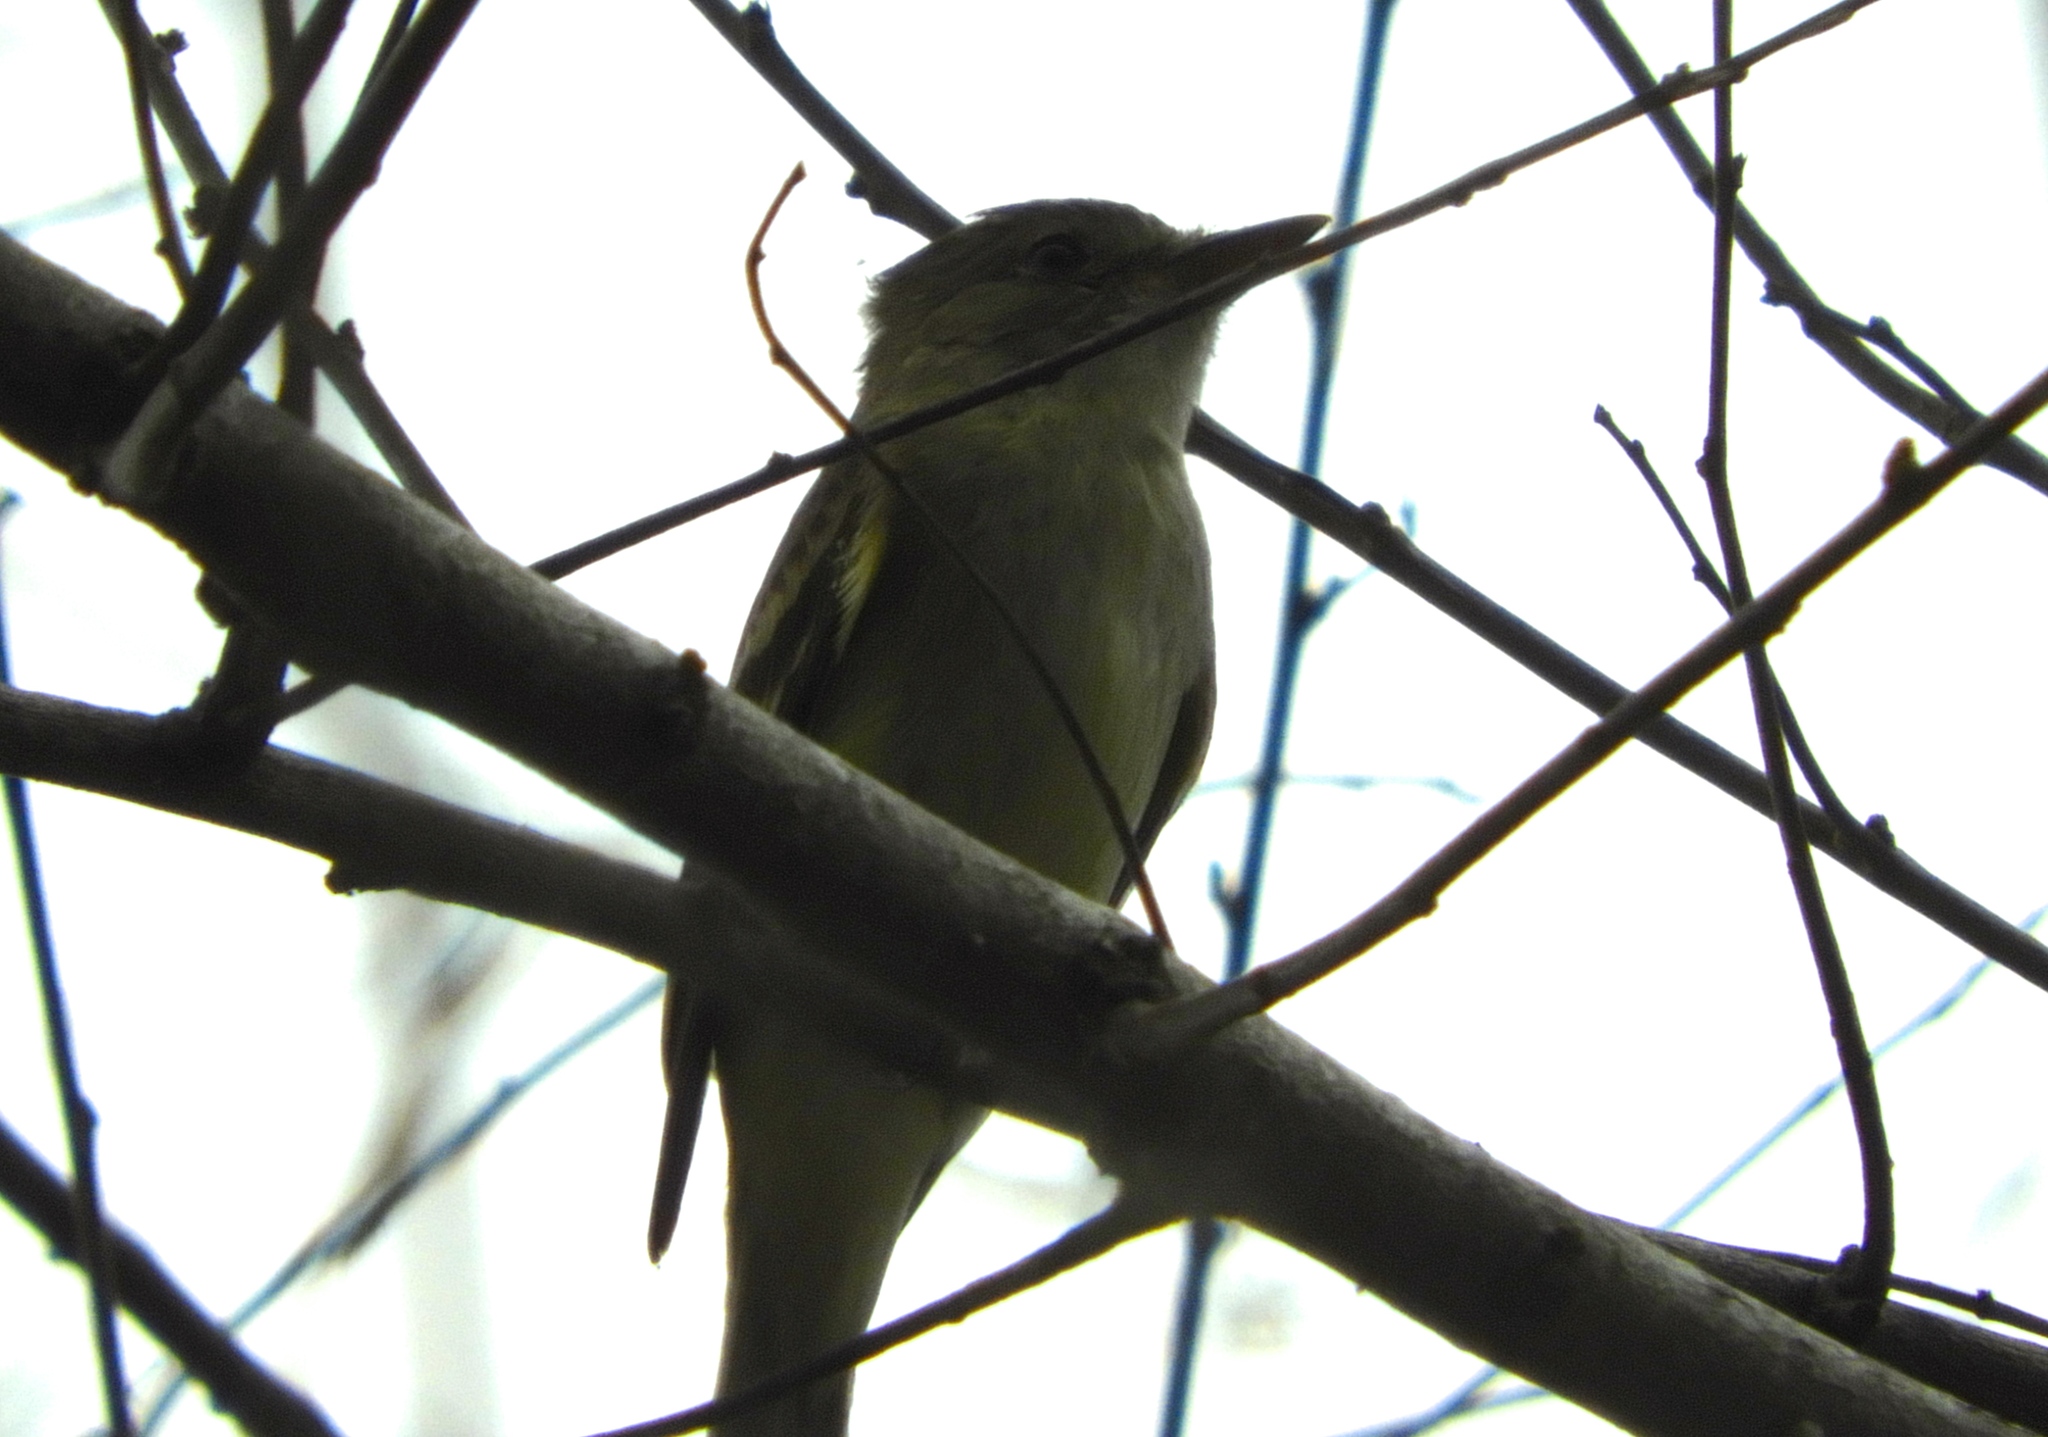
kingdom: Animalia
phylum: Chordata
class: Aves
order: Passeriformes
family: Tyrannidae
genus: Contopus
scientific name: Contopus
